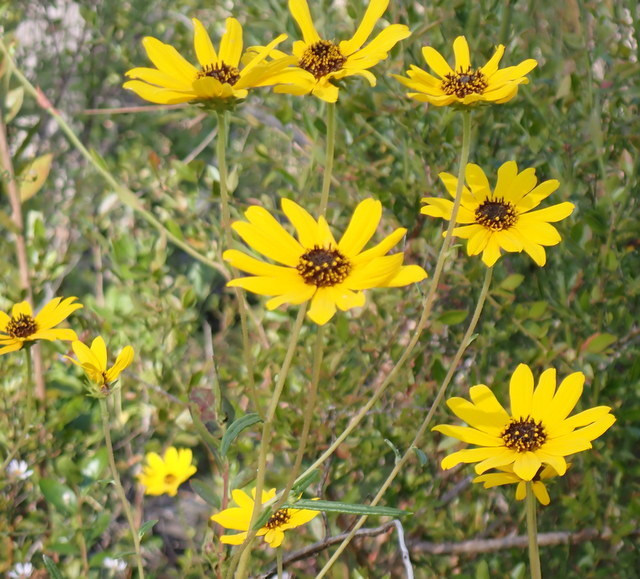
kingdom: Plantae
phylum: Tracheophyta
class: Magnoliopsida
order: Asterales
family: Asteraceae
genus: Helianthus
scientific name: Helianthus angustifolius
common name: Swamp sunflower
